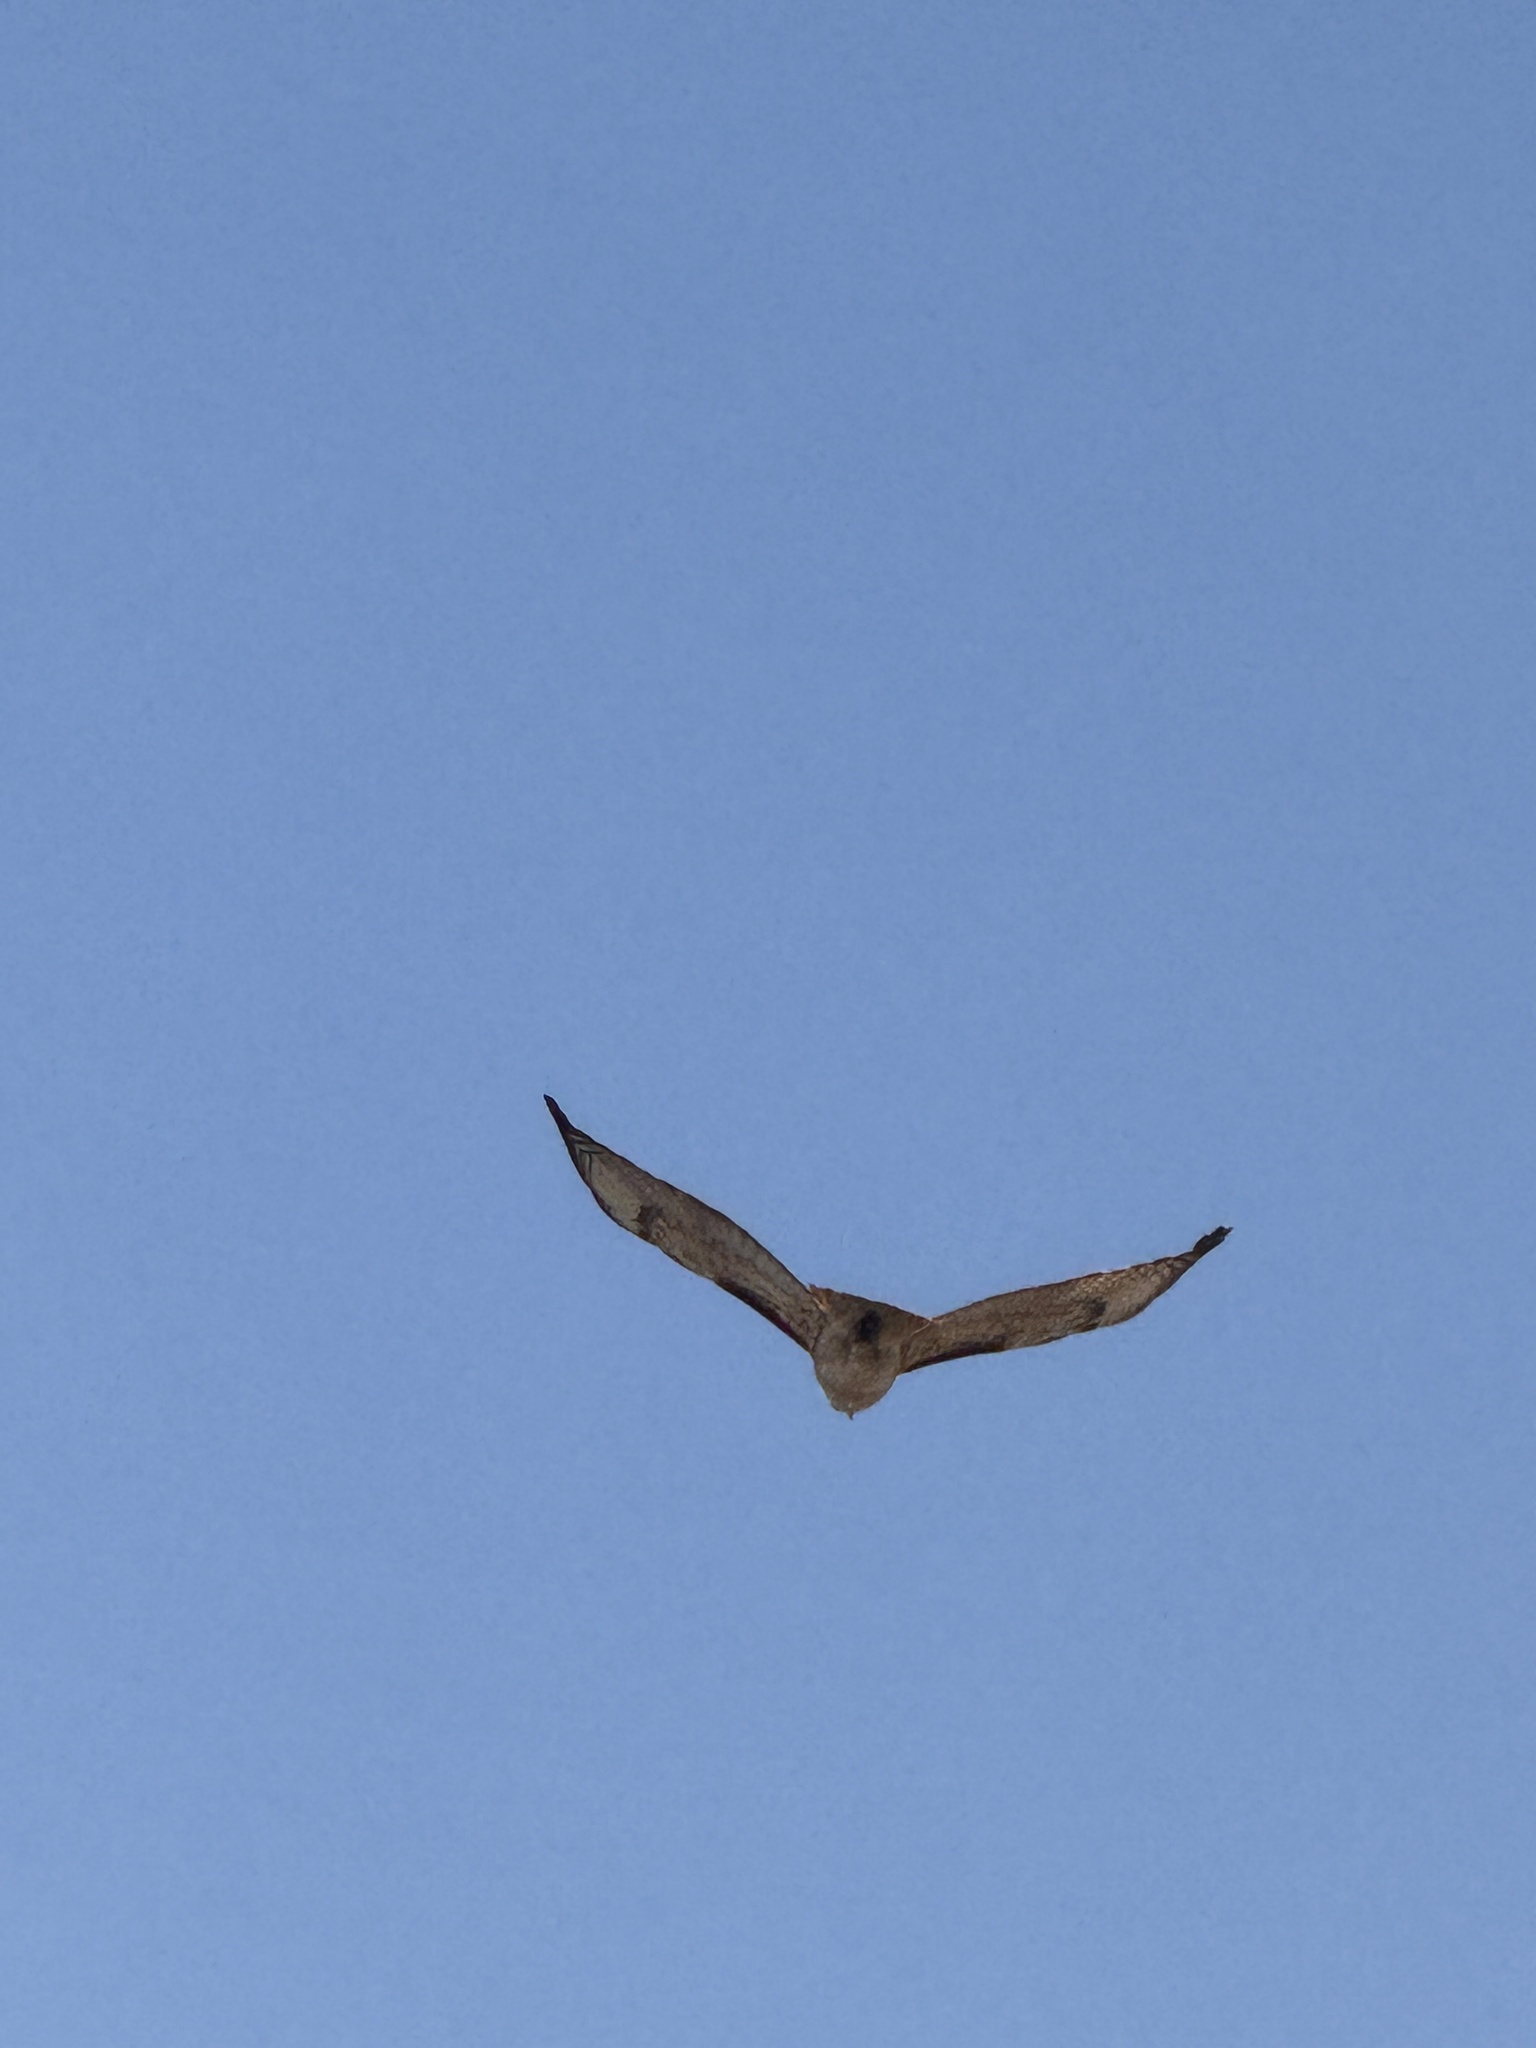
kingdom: Animalia
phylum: Chordata
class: Aves
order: Accipitriformes
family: Accipitridae
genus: Buteo
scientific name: Buteo jamaicensis
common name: Red-tailed hawk
